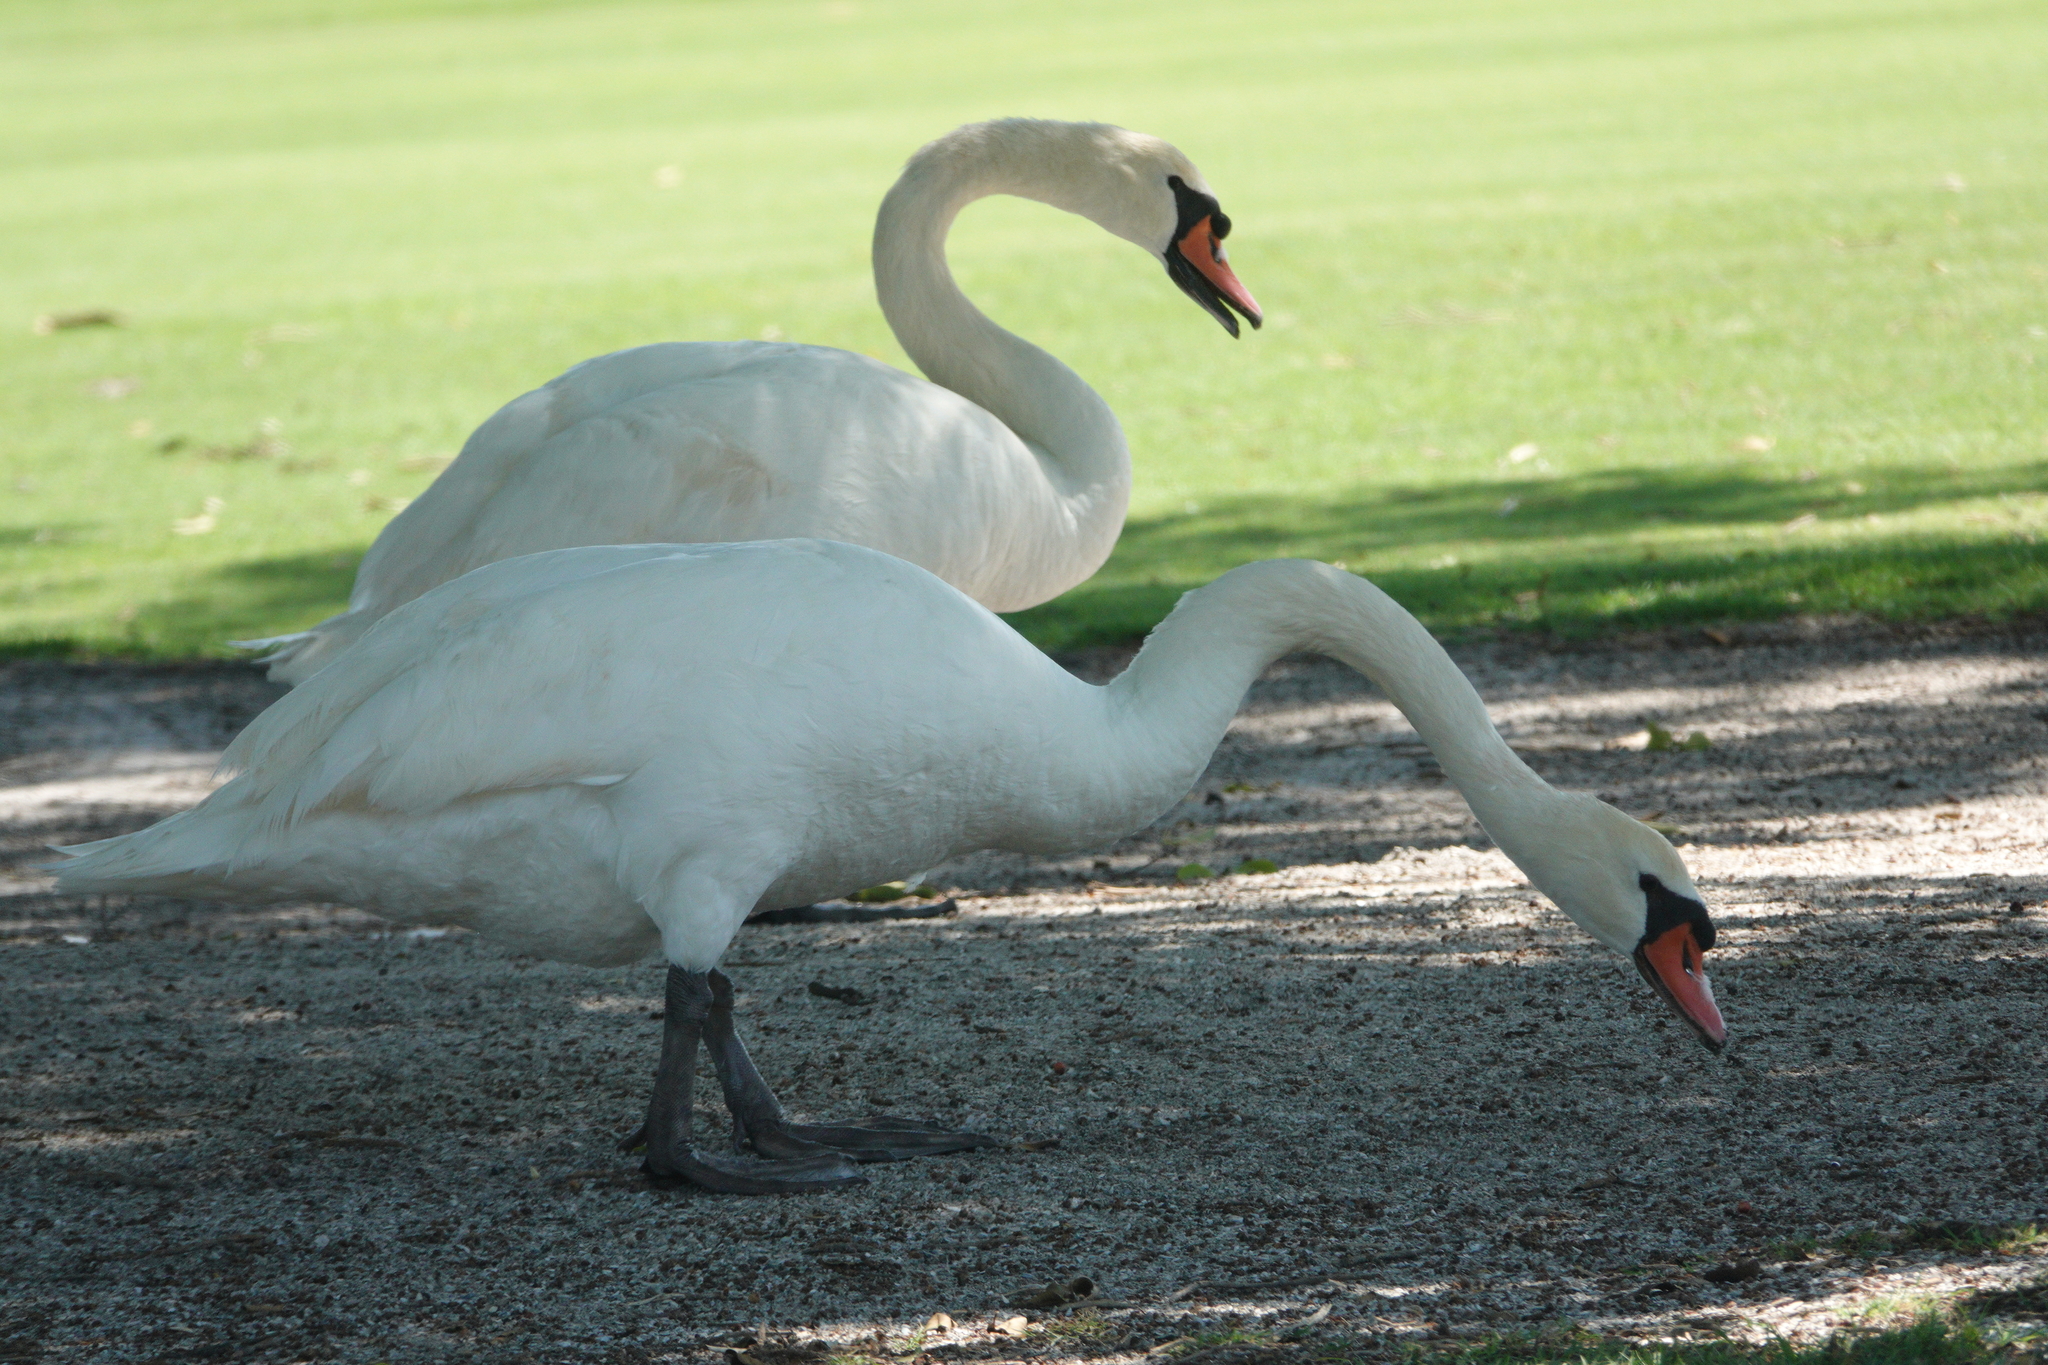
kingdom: Animalia
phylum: Chordata
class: Aves
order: Anseriformes
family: Anatidae
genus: Cygnus
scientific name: Cygnus olor
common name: Mute swan
